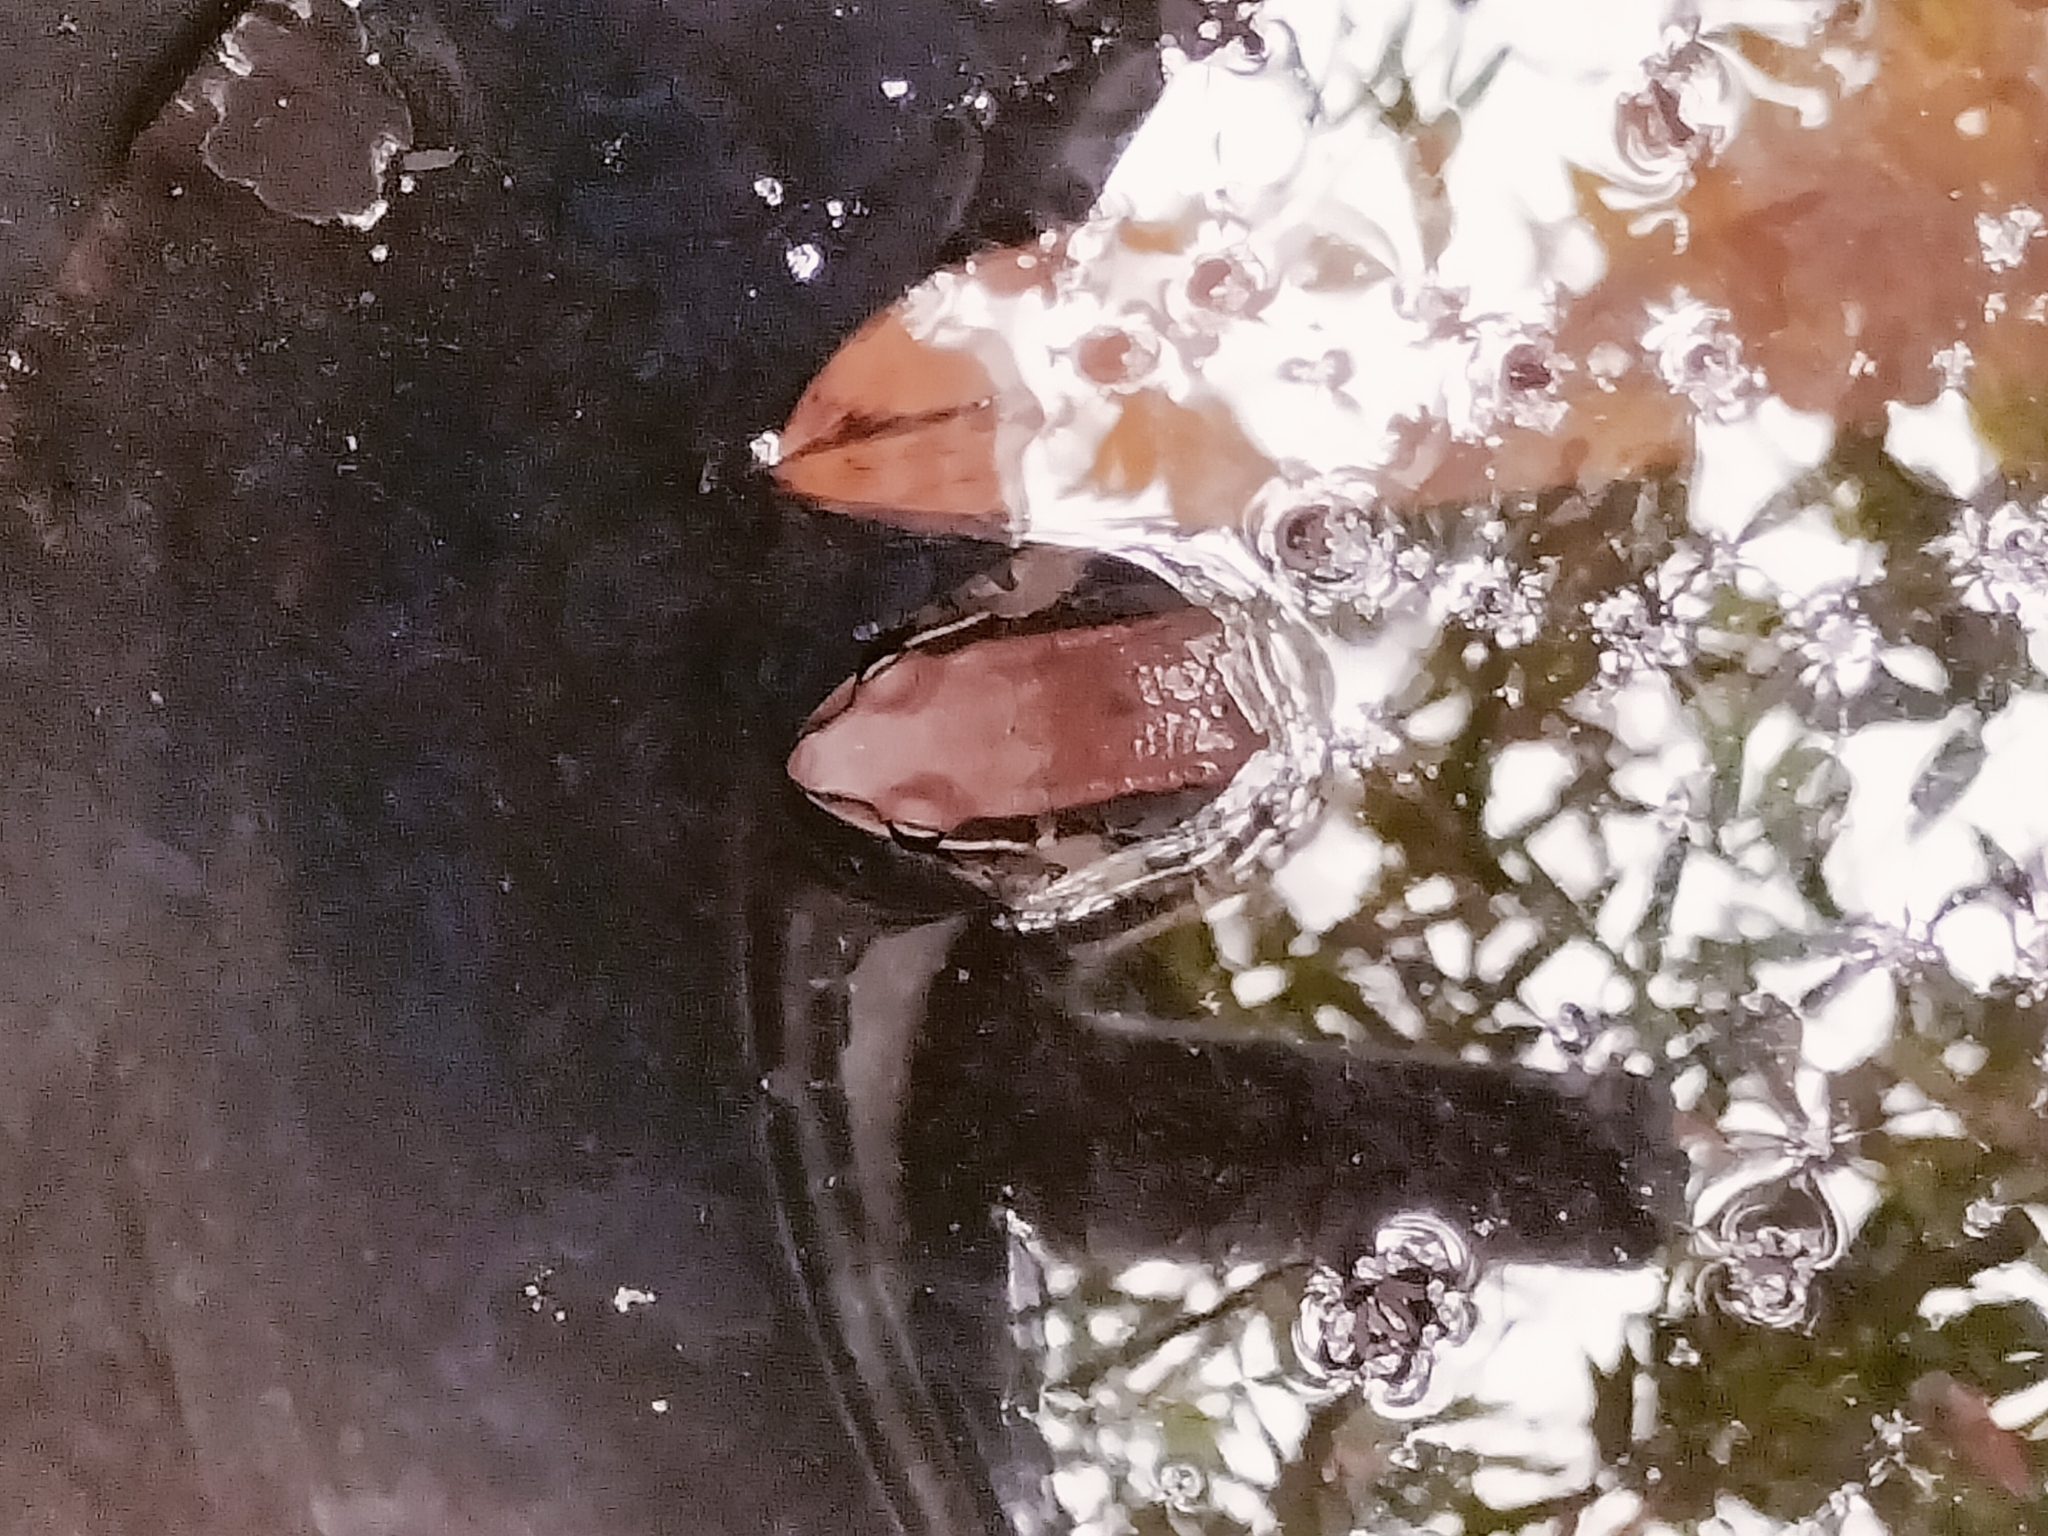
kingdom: Animalia
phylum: Chordata
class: Amphibia
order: Anura
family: Ranidae
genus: Hylarana
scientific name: Hylarana latouchii
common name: Broad-folded frog
